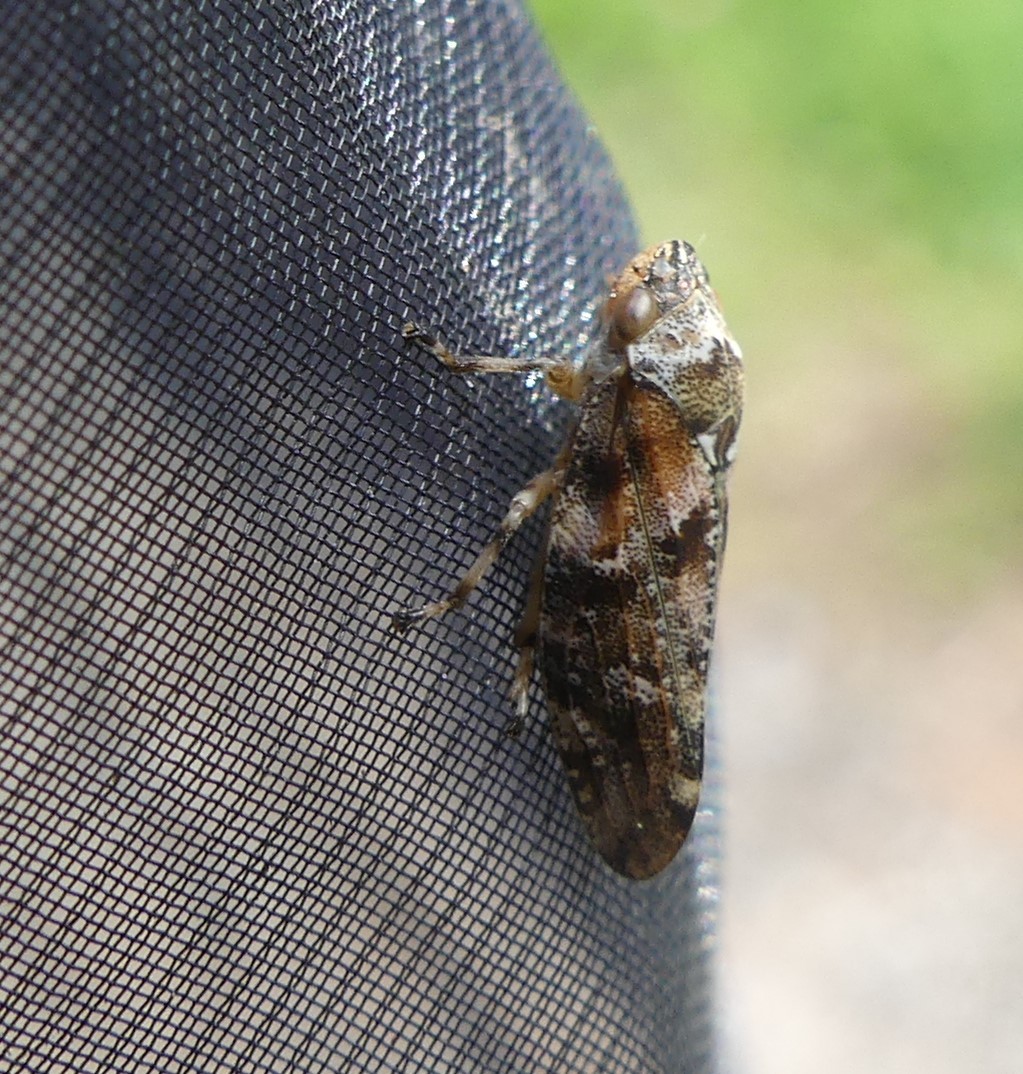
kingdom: Animalia
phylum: Arthropoda
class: Insecta
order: Hemiptera
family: Aphrophoridae
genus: Aphrophora
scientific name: Aphrophora corticea
